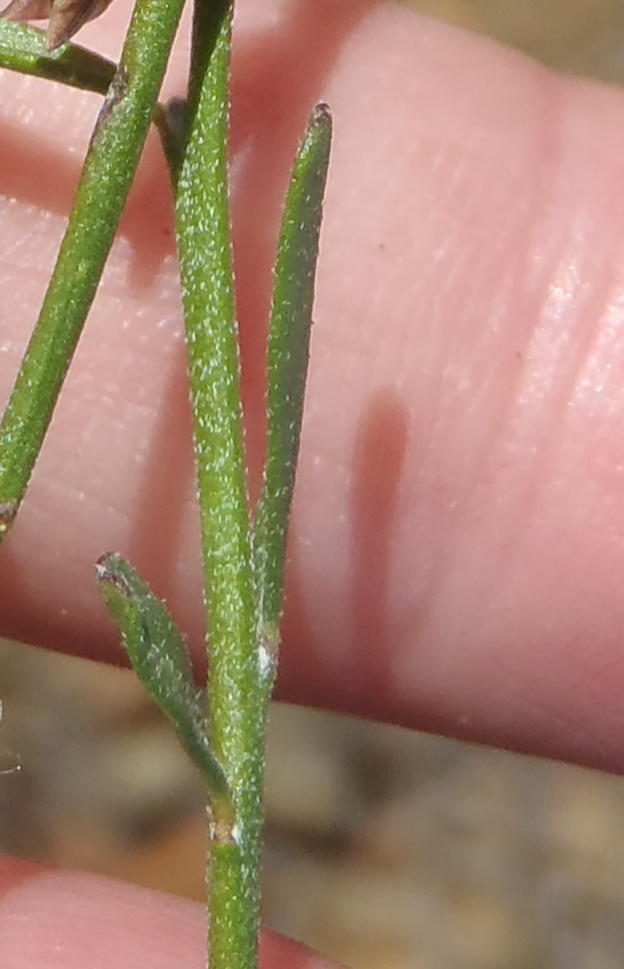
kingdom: Plantae
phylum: Tracheophyta
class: Magnoliopsida
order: Fabales
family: Polygalaceae
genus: Polygala
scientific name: Polygala leptophylla
